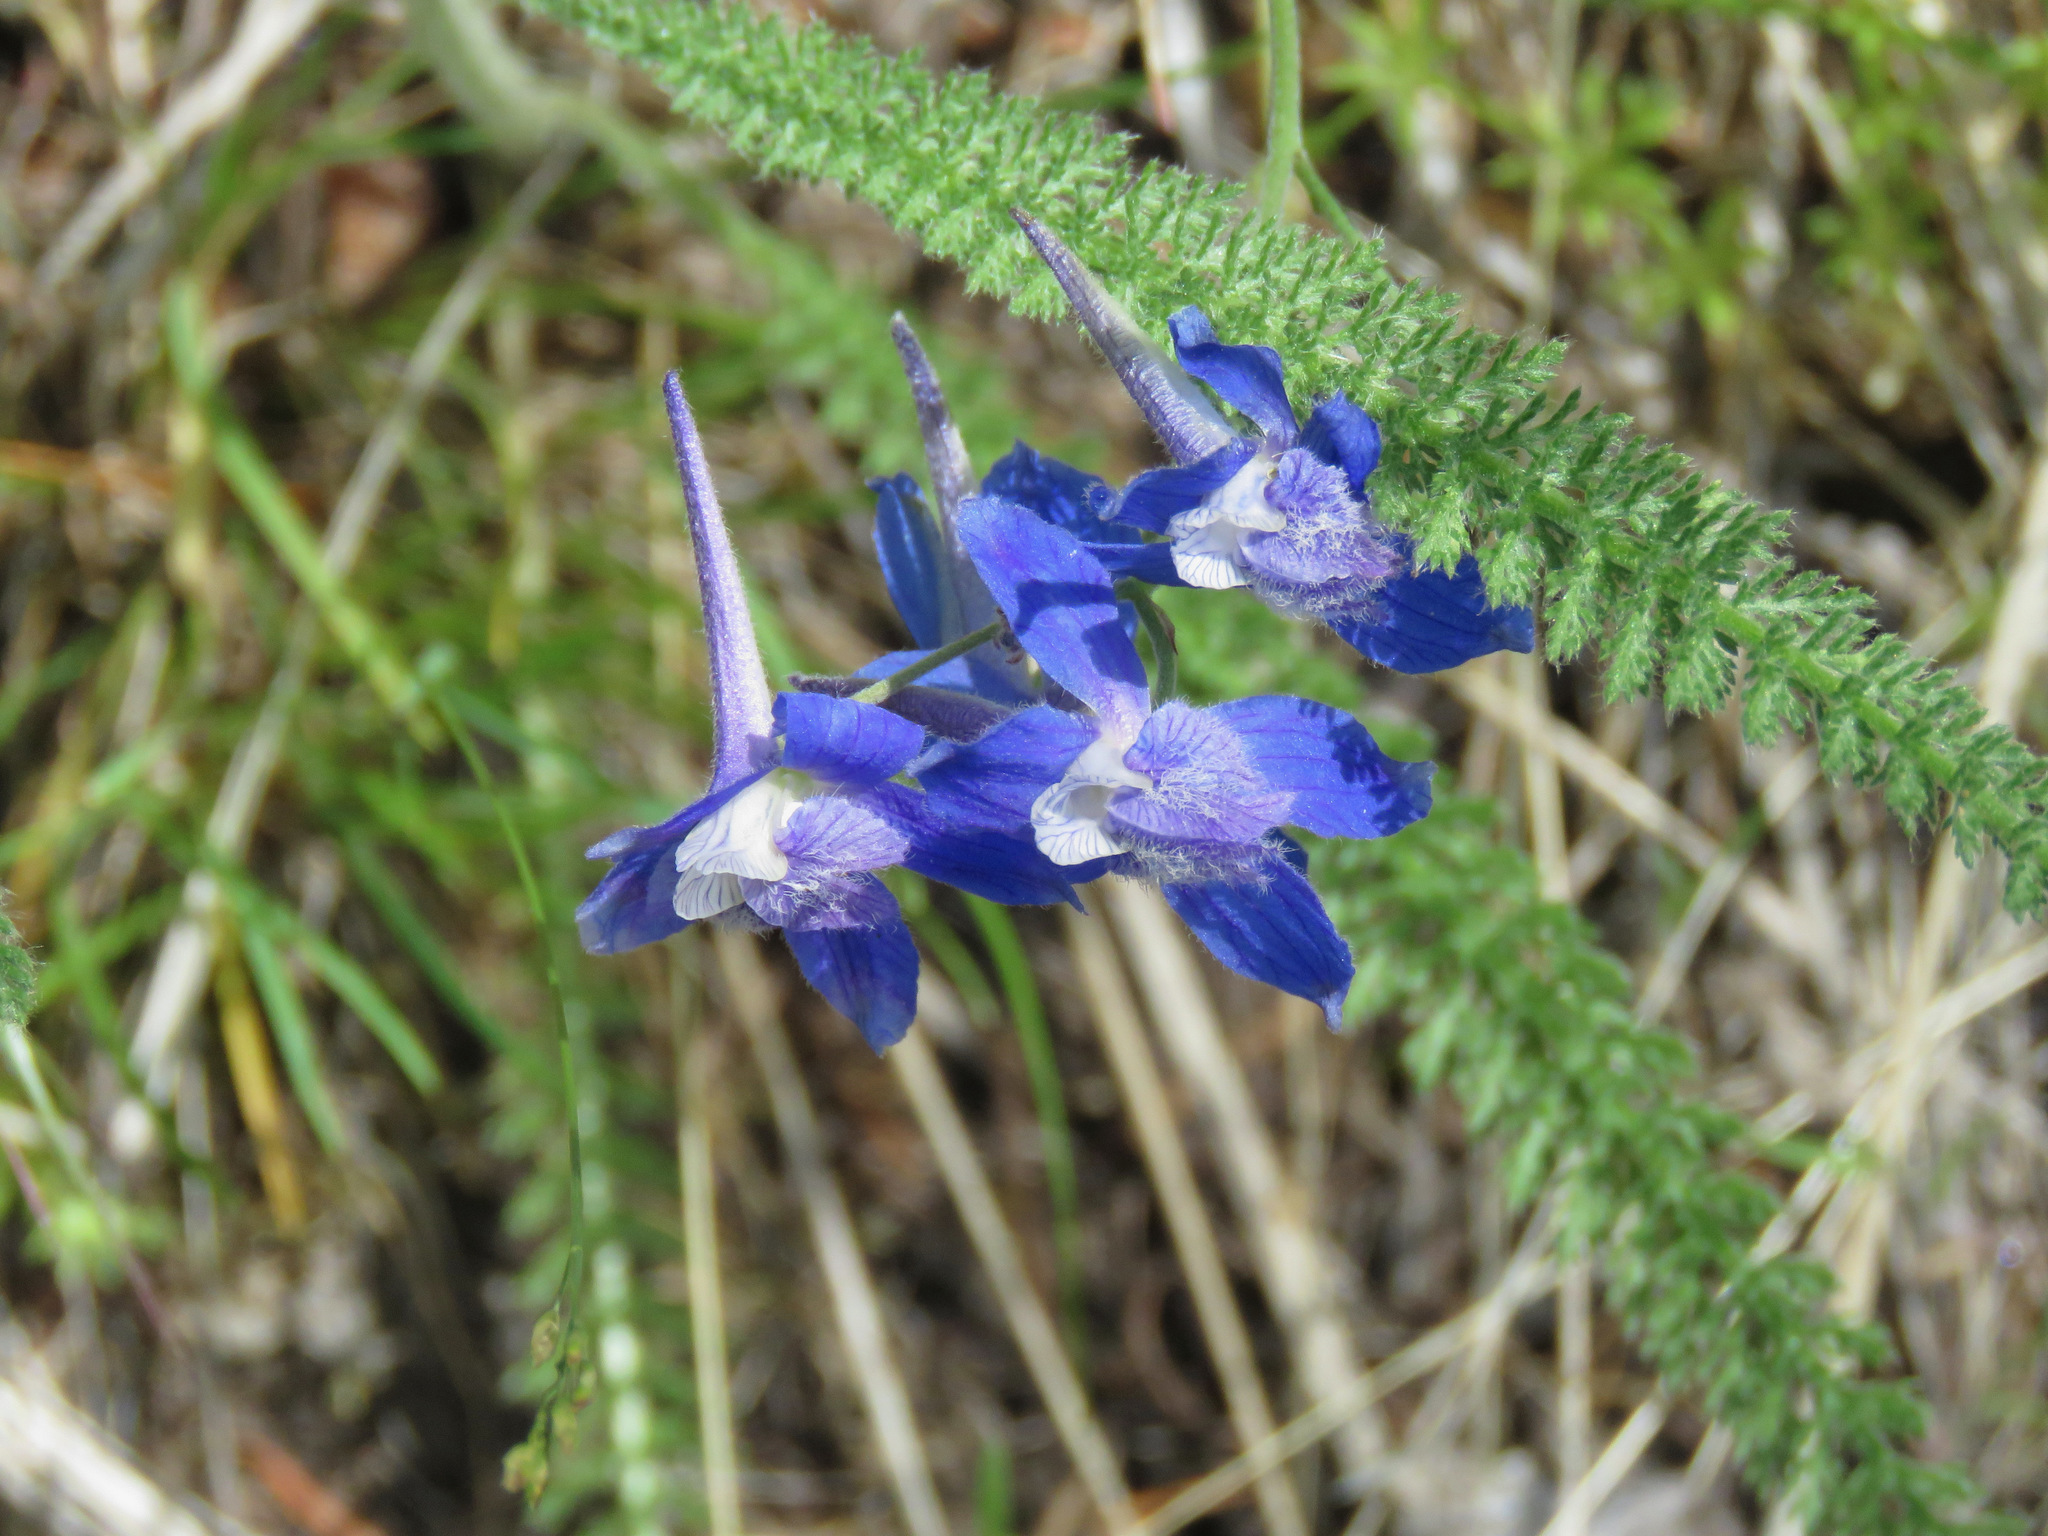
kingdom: Plantae
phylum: Tracheophyta
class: Magnoliopsida
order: Ranunculales
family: Ranunculaceae
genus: Delphinium
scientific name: Delphinium nuttallianum
